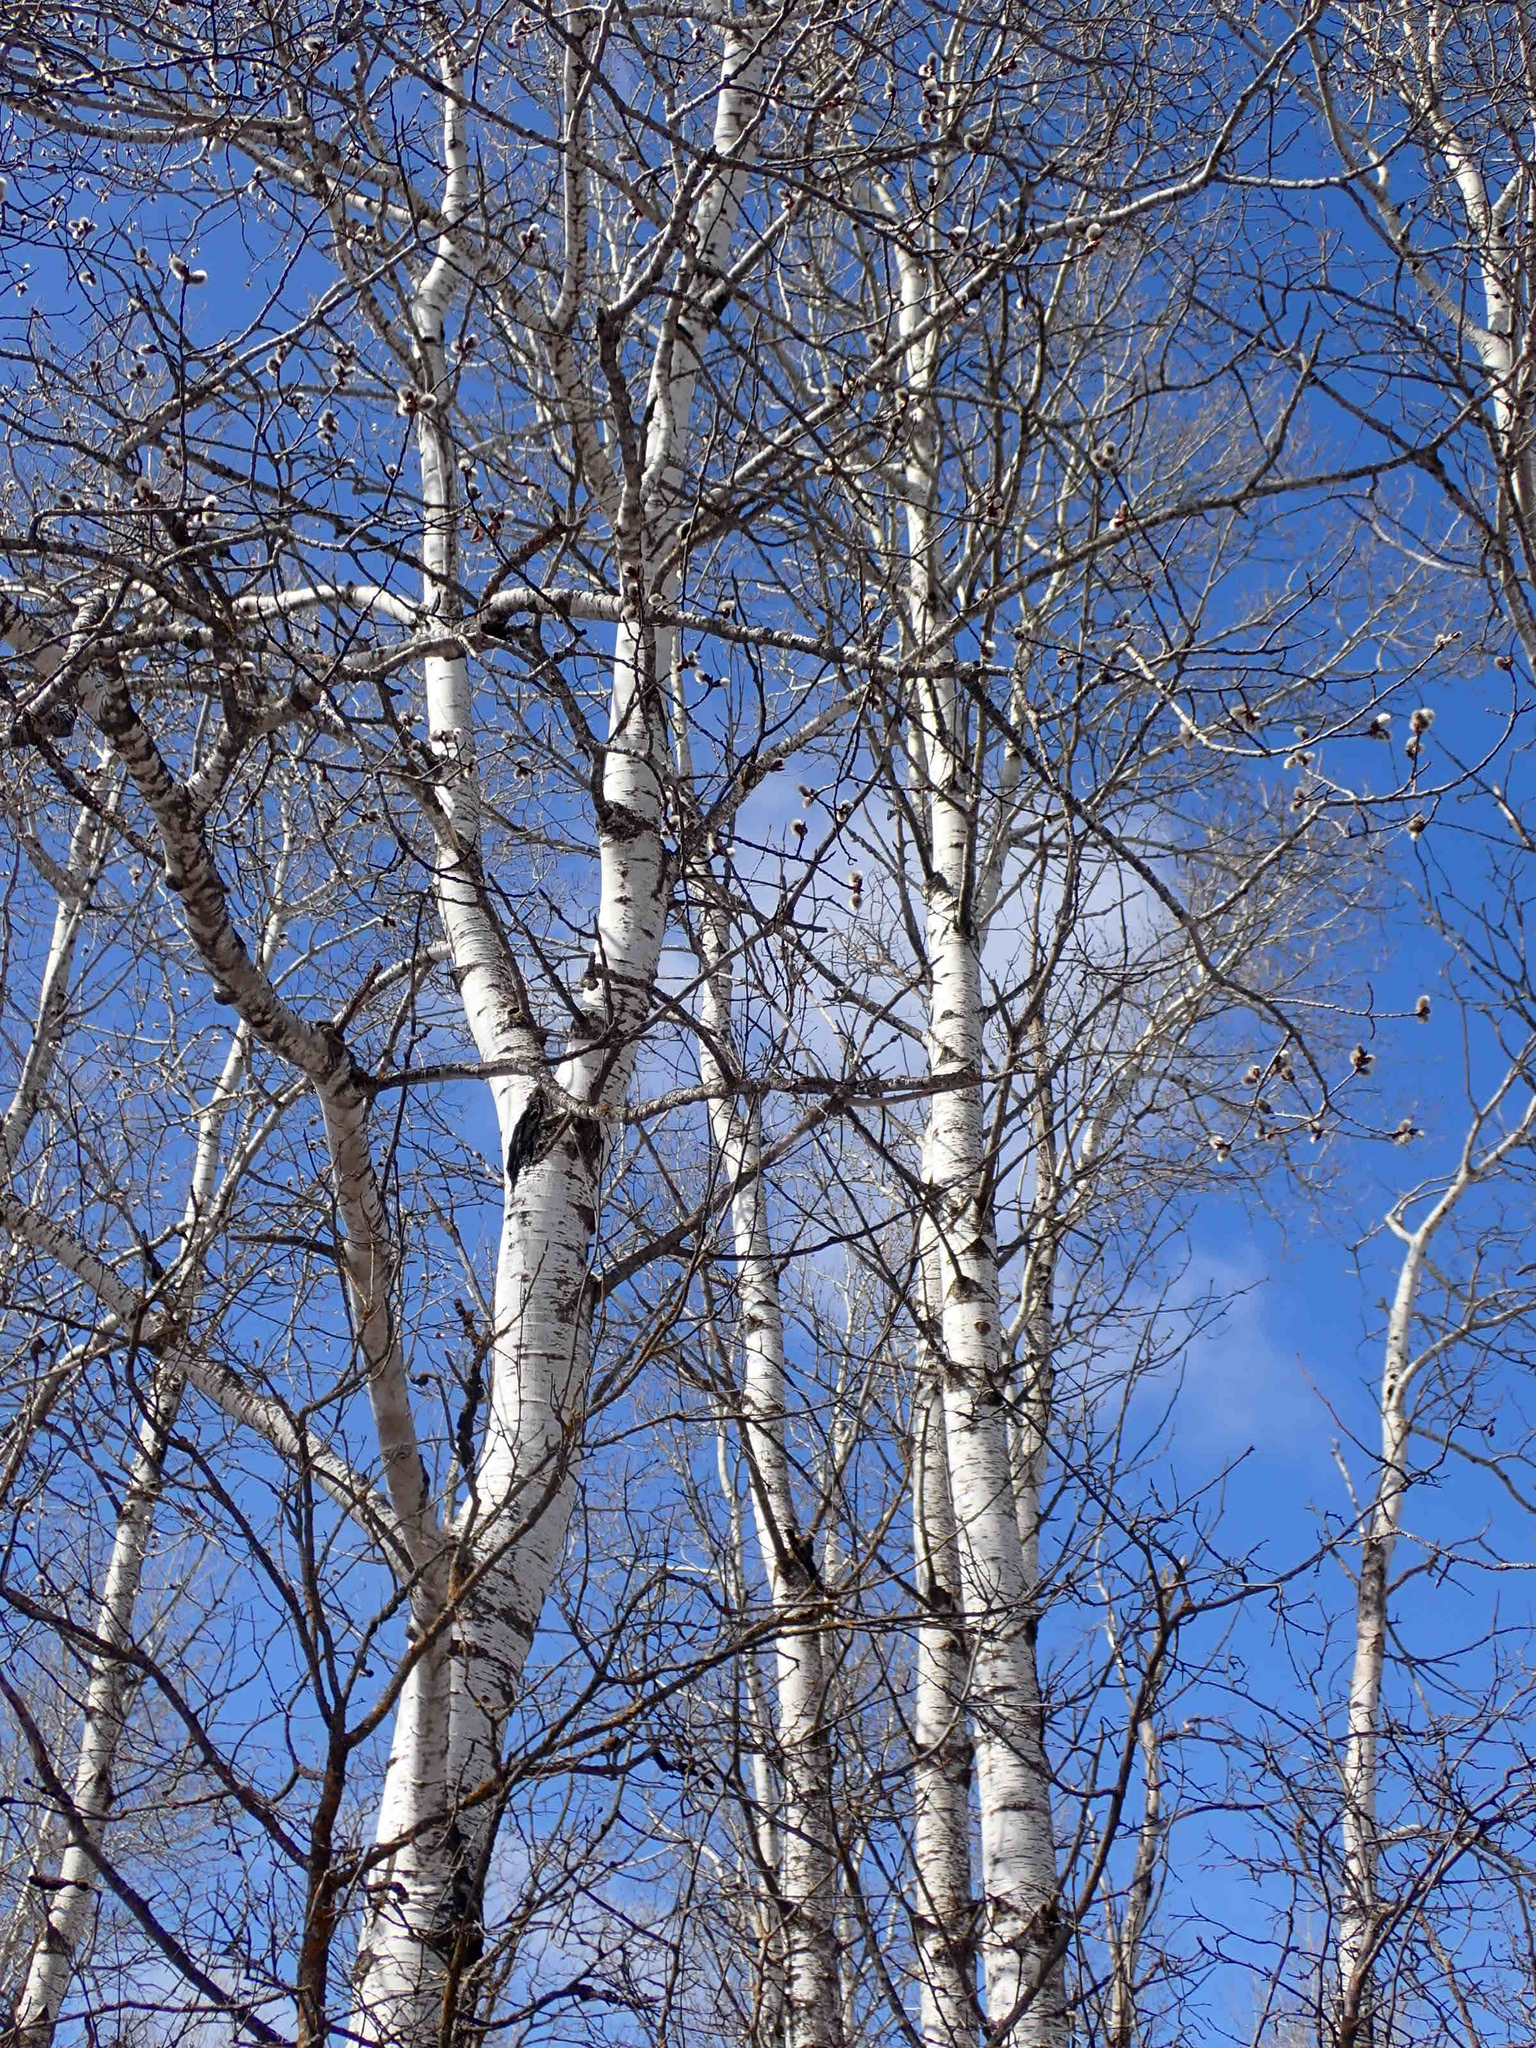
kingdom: Plantae
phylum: Tracheophyta
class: Magnoliopsida
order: Malpighiales
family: Salicaceae
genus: Populus
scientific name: Populus tremuloides
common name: Quaking aspen
